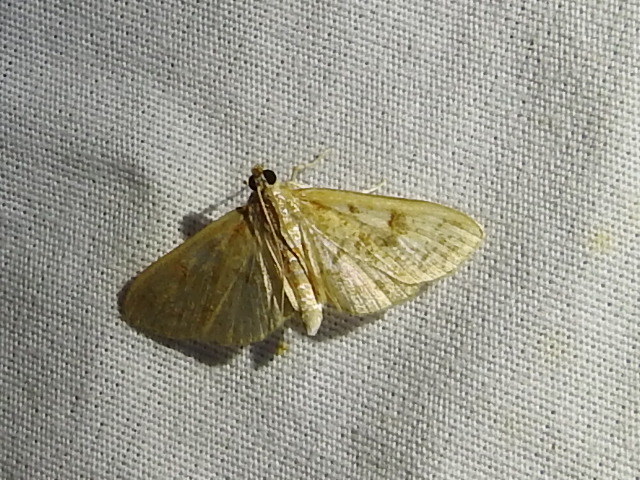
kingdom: Animalia
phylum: Arthropoda
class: Insecta
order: Lepidoptera
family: Crambidae
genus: Palpita
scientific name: Palpita freemanalis
